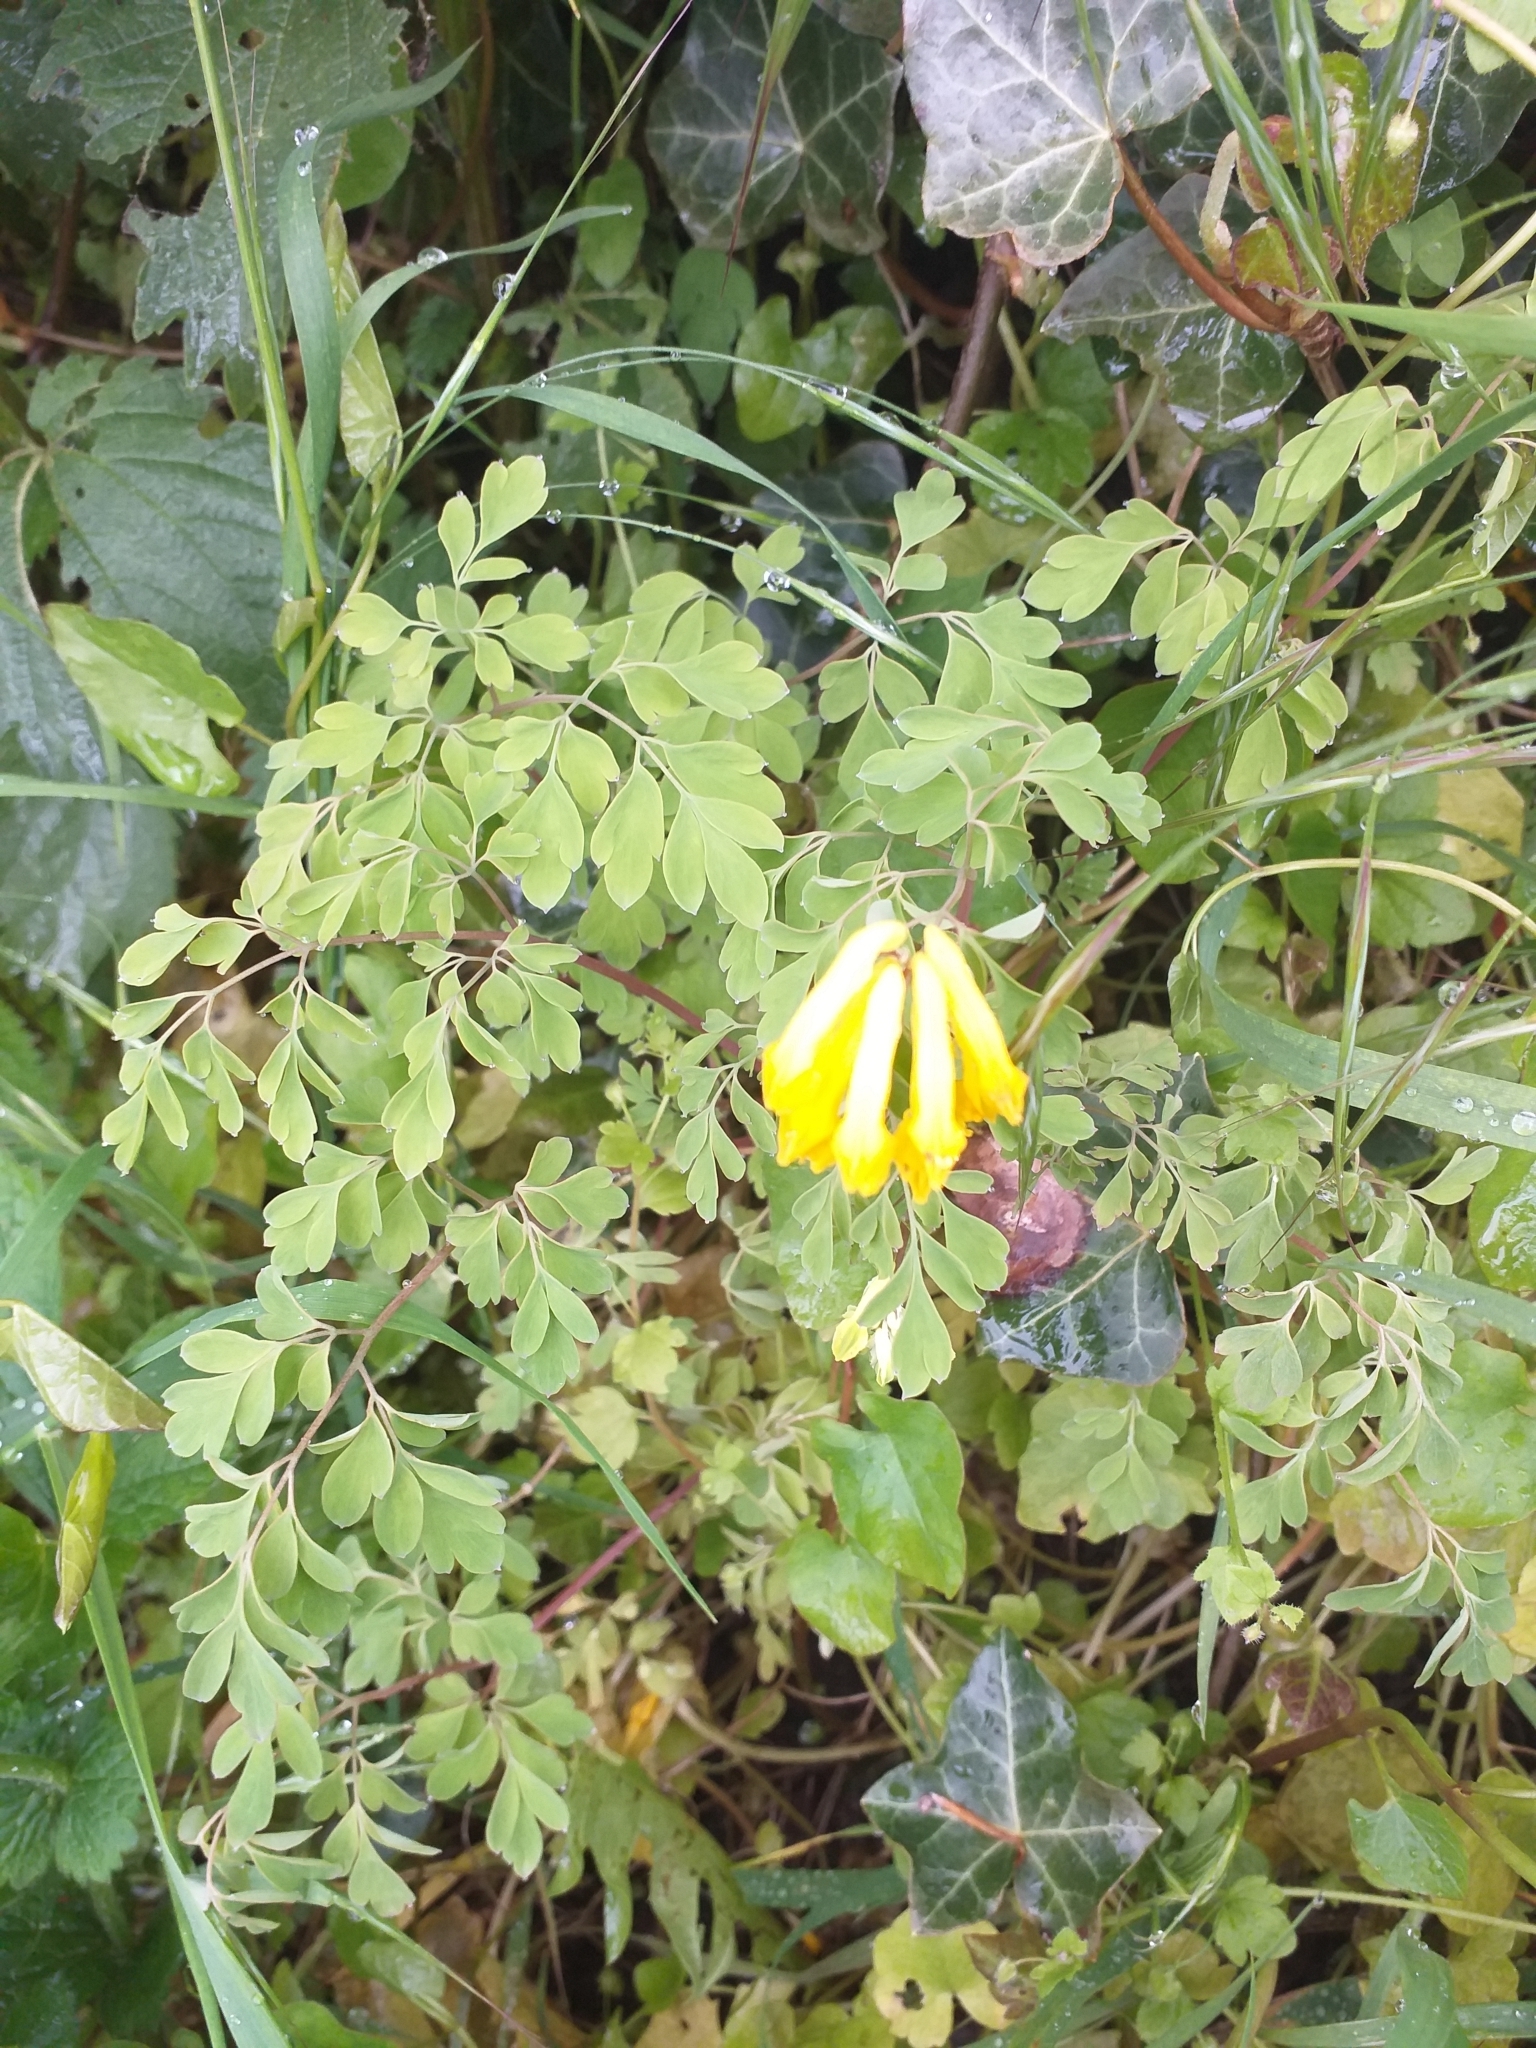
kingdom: Plantae
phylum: Tracheophyta
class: Magnoliopsida
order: Ranunculales
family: Papaveraceae
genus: Pseudofumaria
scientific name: Pseudofumaria lutea
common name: Yellow corydalis
